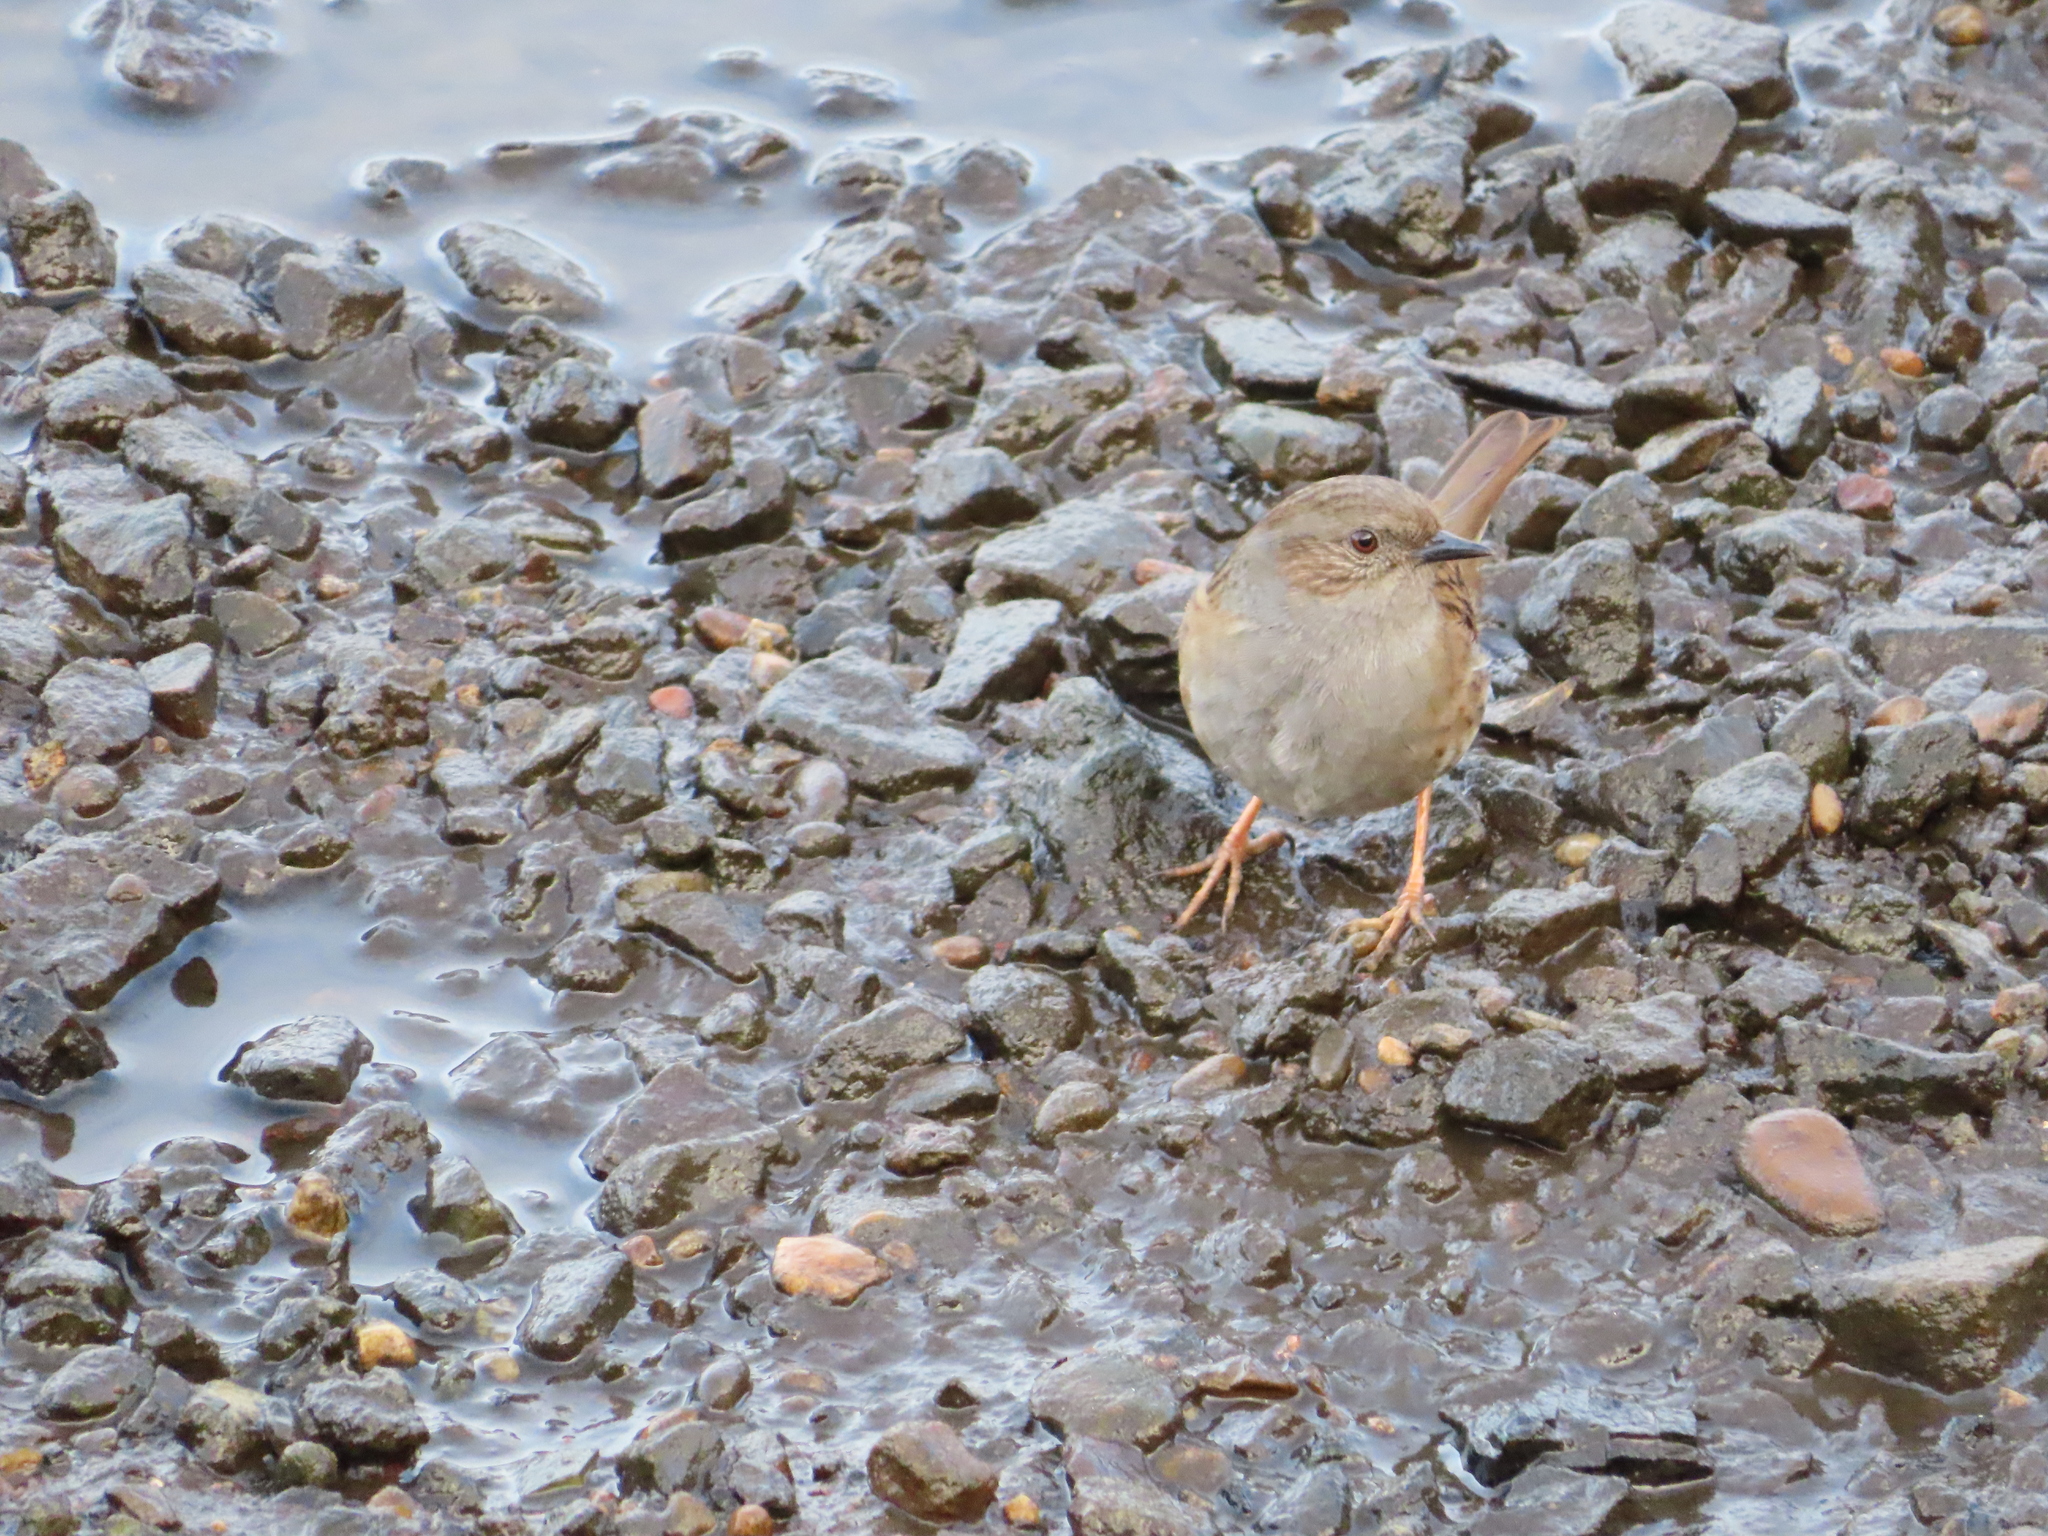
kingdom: Animalia
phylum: Chordata
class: Aves
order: Passeriformes
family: Prunellidae
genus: Prunella
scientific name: Prunella modularis
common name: Dunnock
